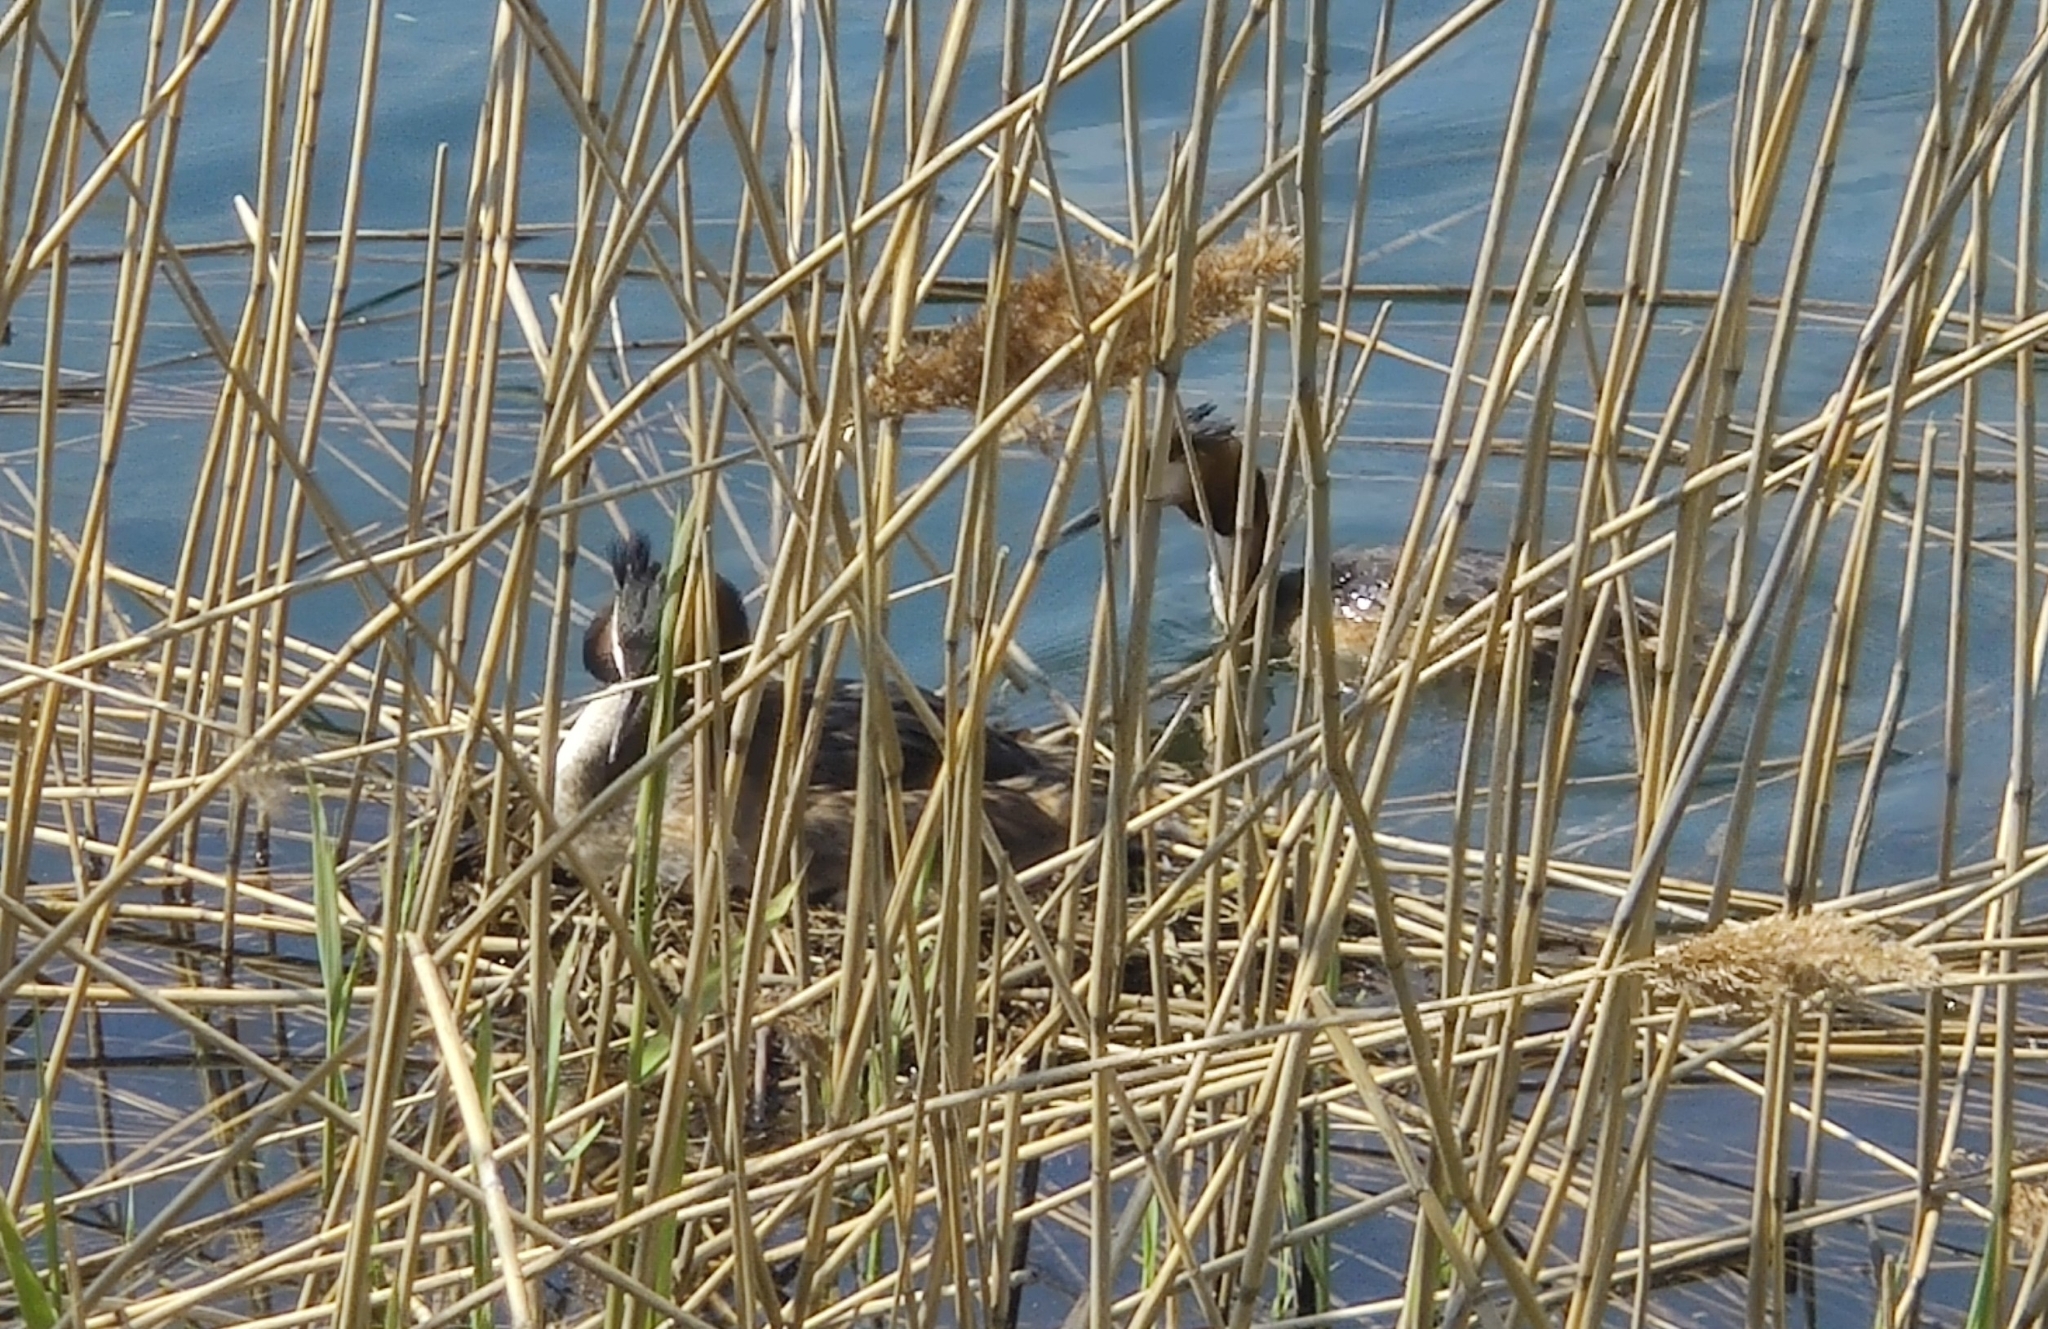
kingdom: Animalia
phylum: Chordata
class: Aves
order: Podicipediformes
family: Podicipedidae
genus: Podiceps
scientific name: Podiceps cristatus
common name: Great crested grebe
